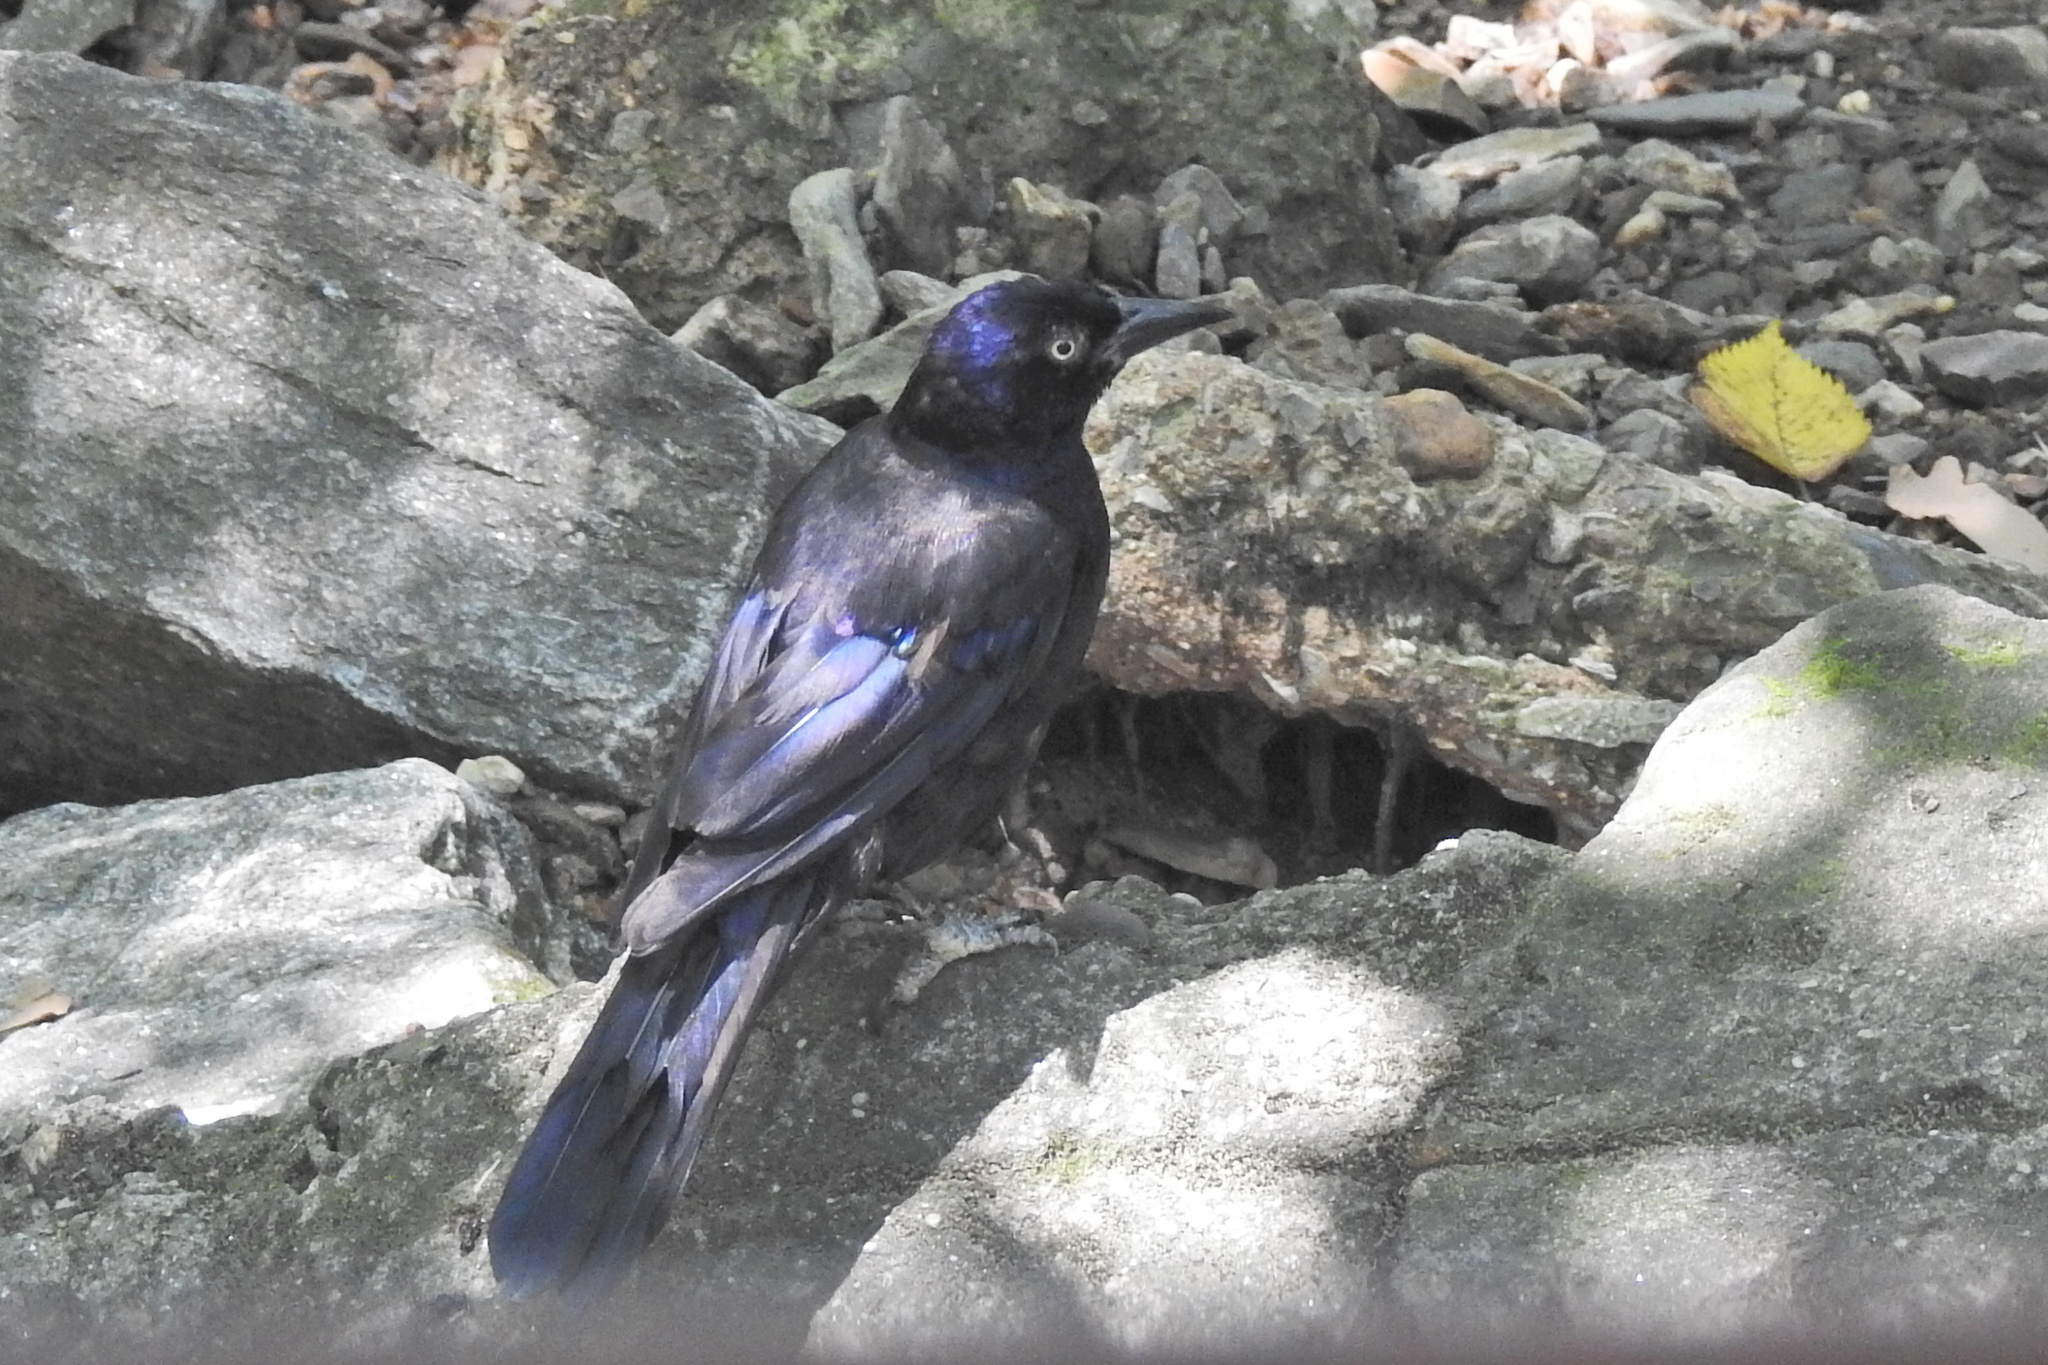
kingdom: Animalia
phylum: Chordata
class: Aves
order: Passeriformes
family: Icteridae
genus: Quiscalus
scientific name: Quiscalus quiscula
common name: Common grackle
